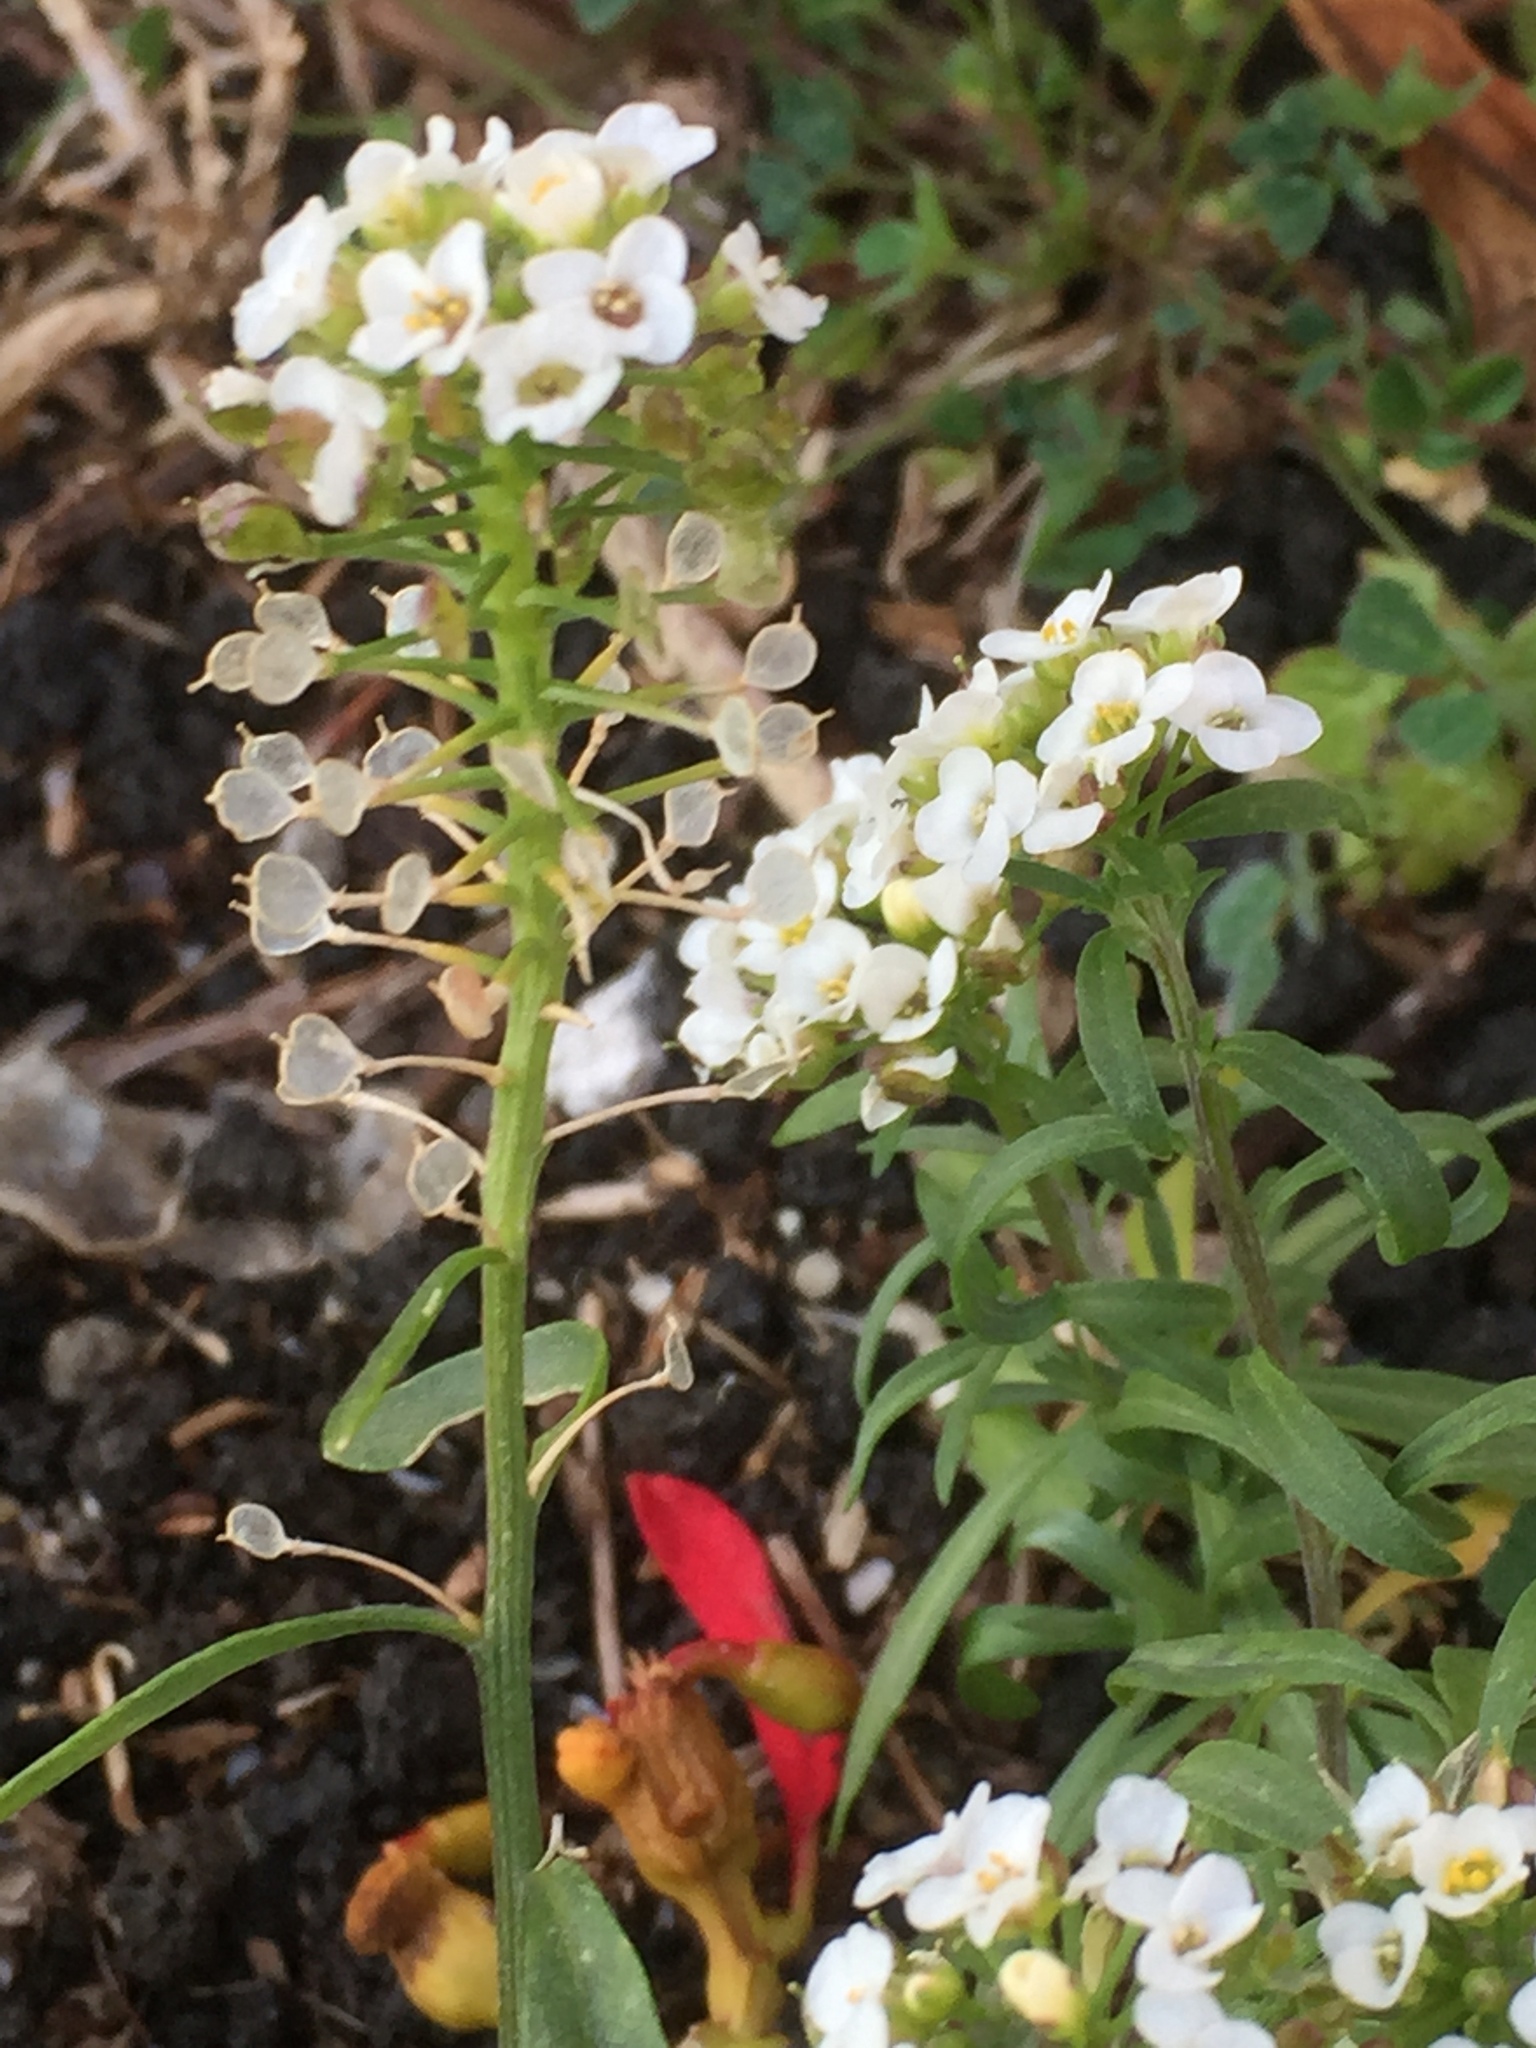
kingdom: Plantae
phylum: Tracheophyta
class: Magnoliopsida
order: Brassicales
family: Brassicaceae
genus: Lobularia
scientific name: Lobularia maritima
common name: Sweet alison
